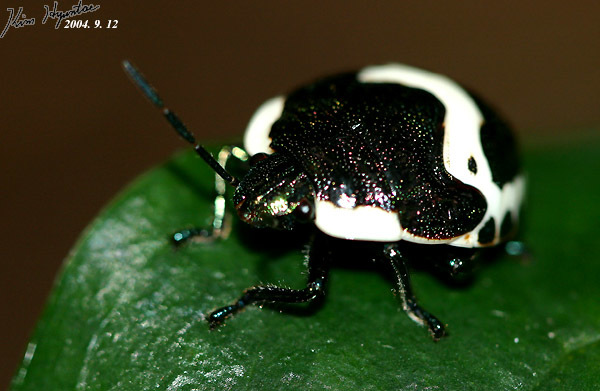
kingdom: Animalia
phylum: Arthropoda
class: Insecta
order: Hemiptera
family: Scutelleridae
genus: Poecilocoris
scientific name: Poecilocoris lewisi
